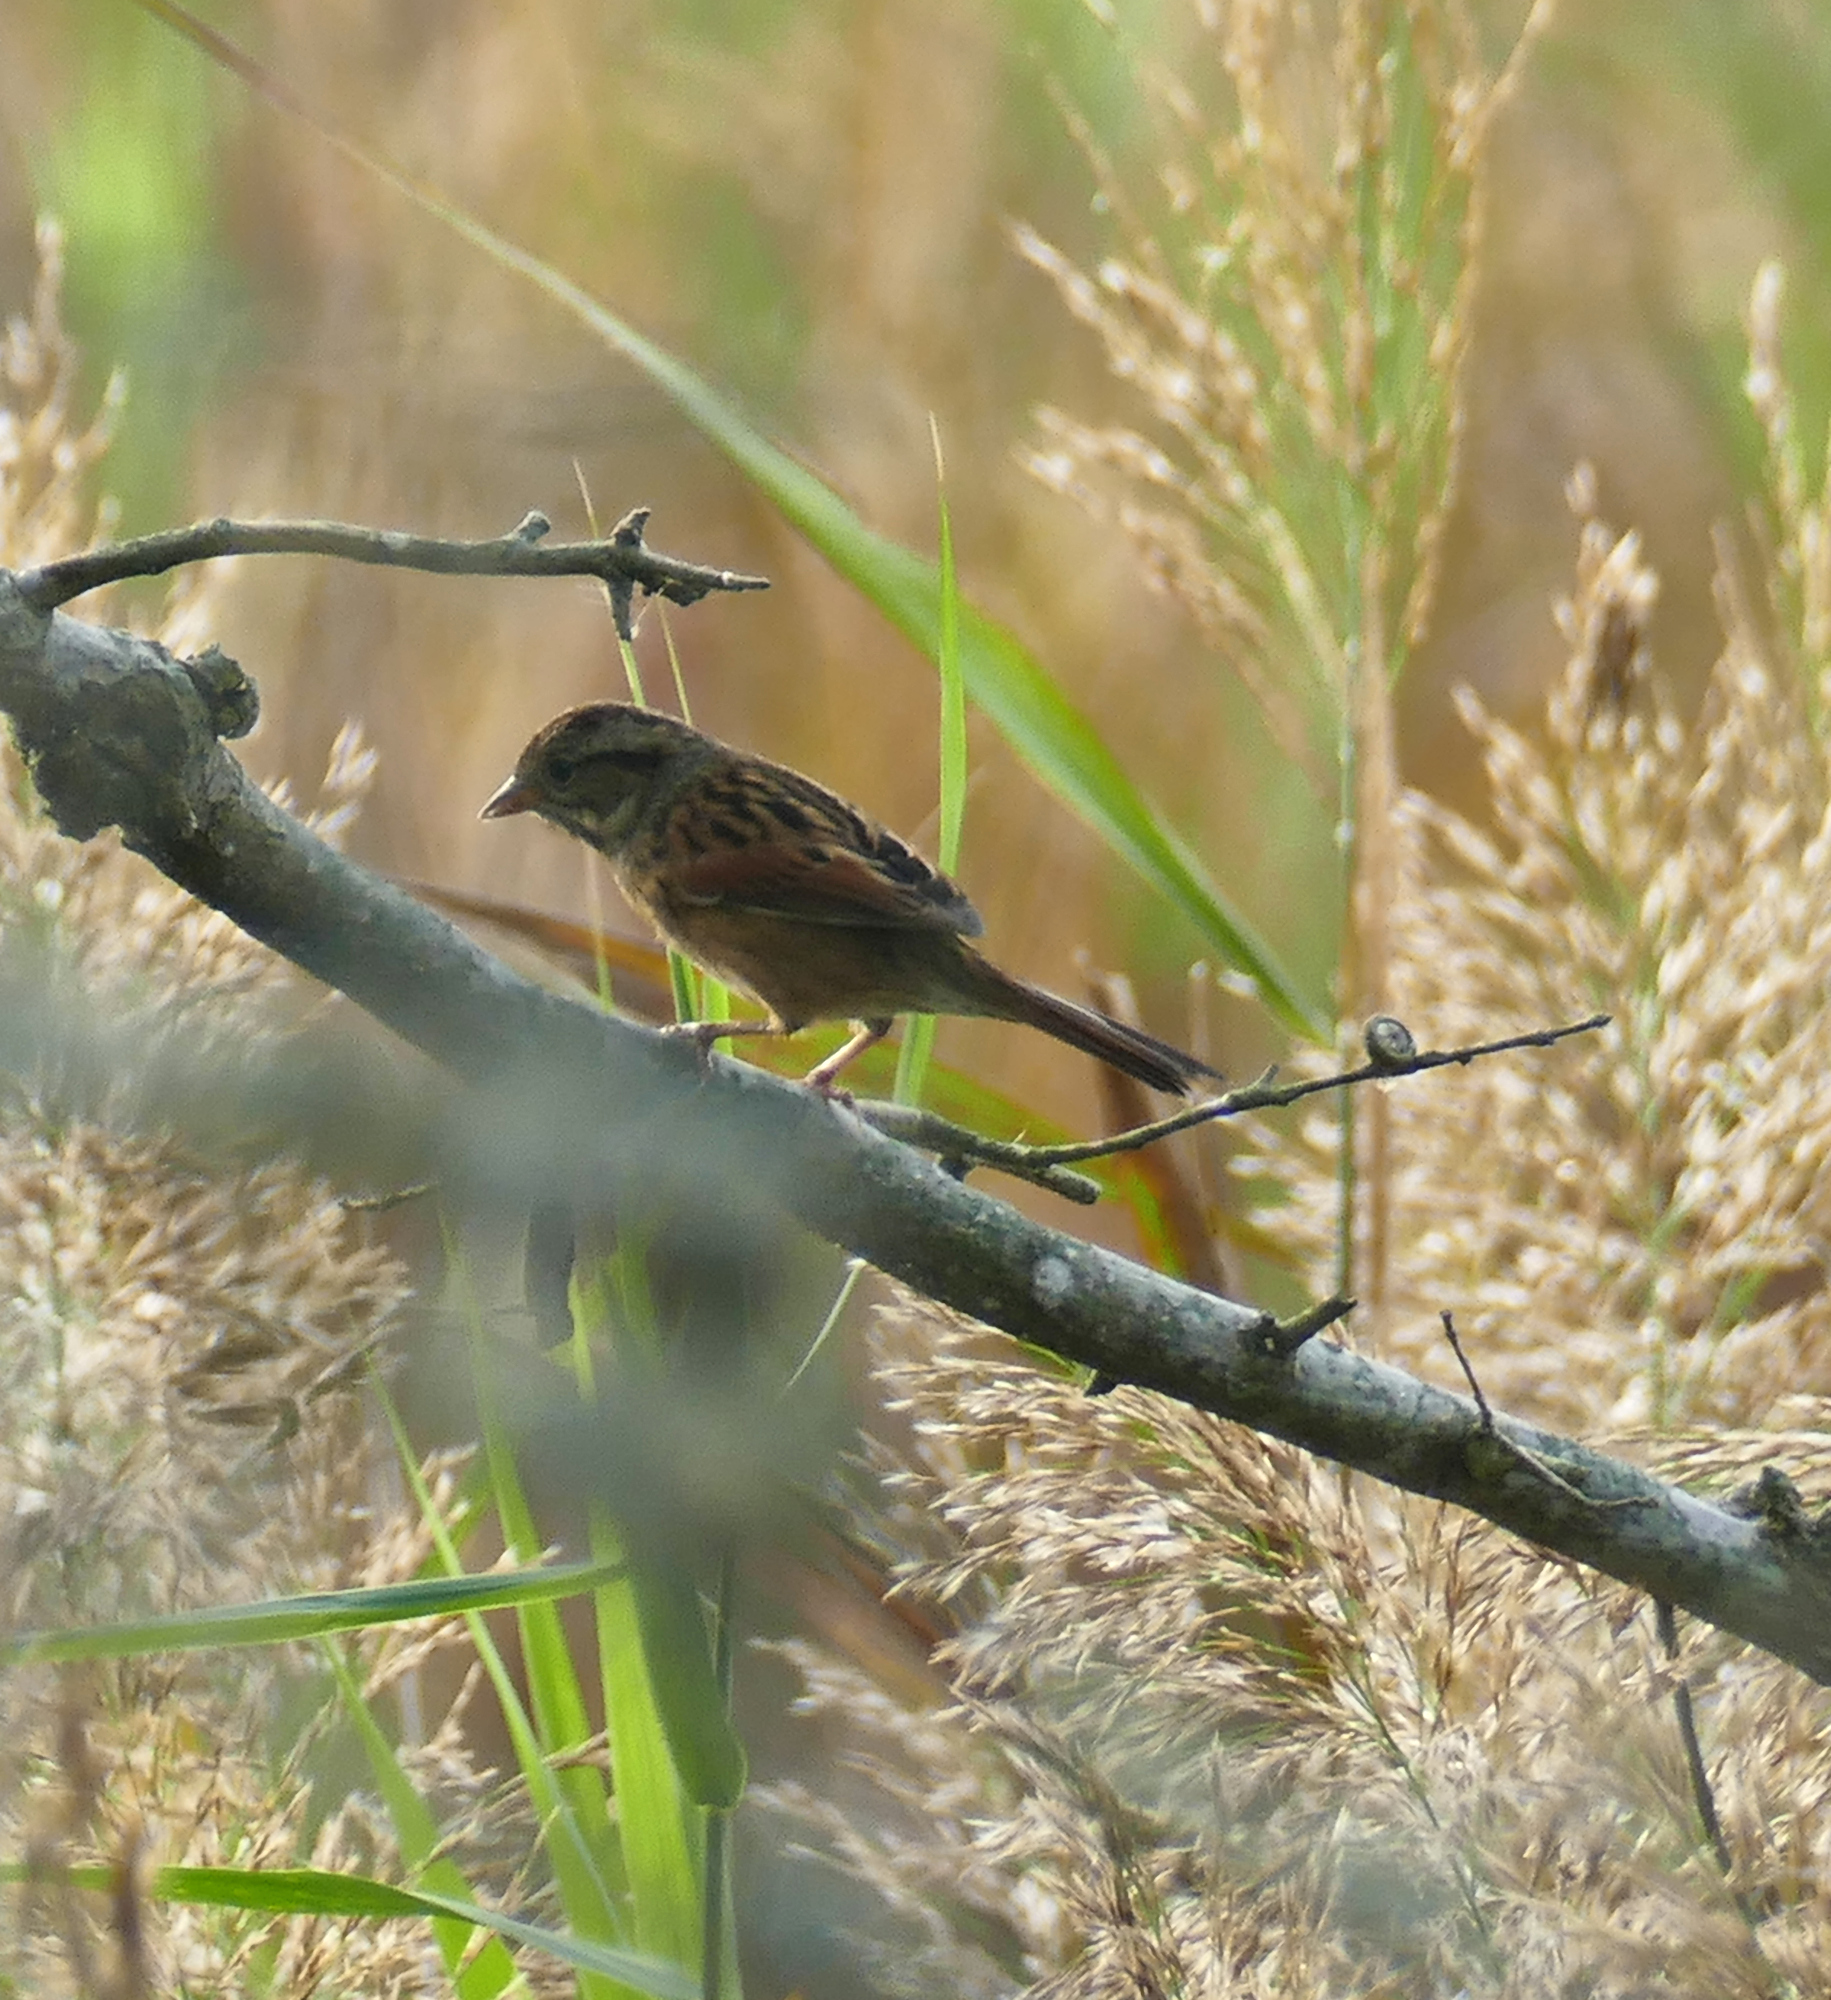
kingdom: Animalia
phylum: Chordata
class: Aves
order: Passeriformes
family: Passerellidae
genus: Melospiza
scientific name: Melospiza georgiana
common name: Swamp sparrow
